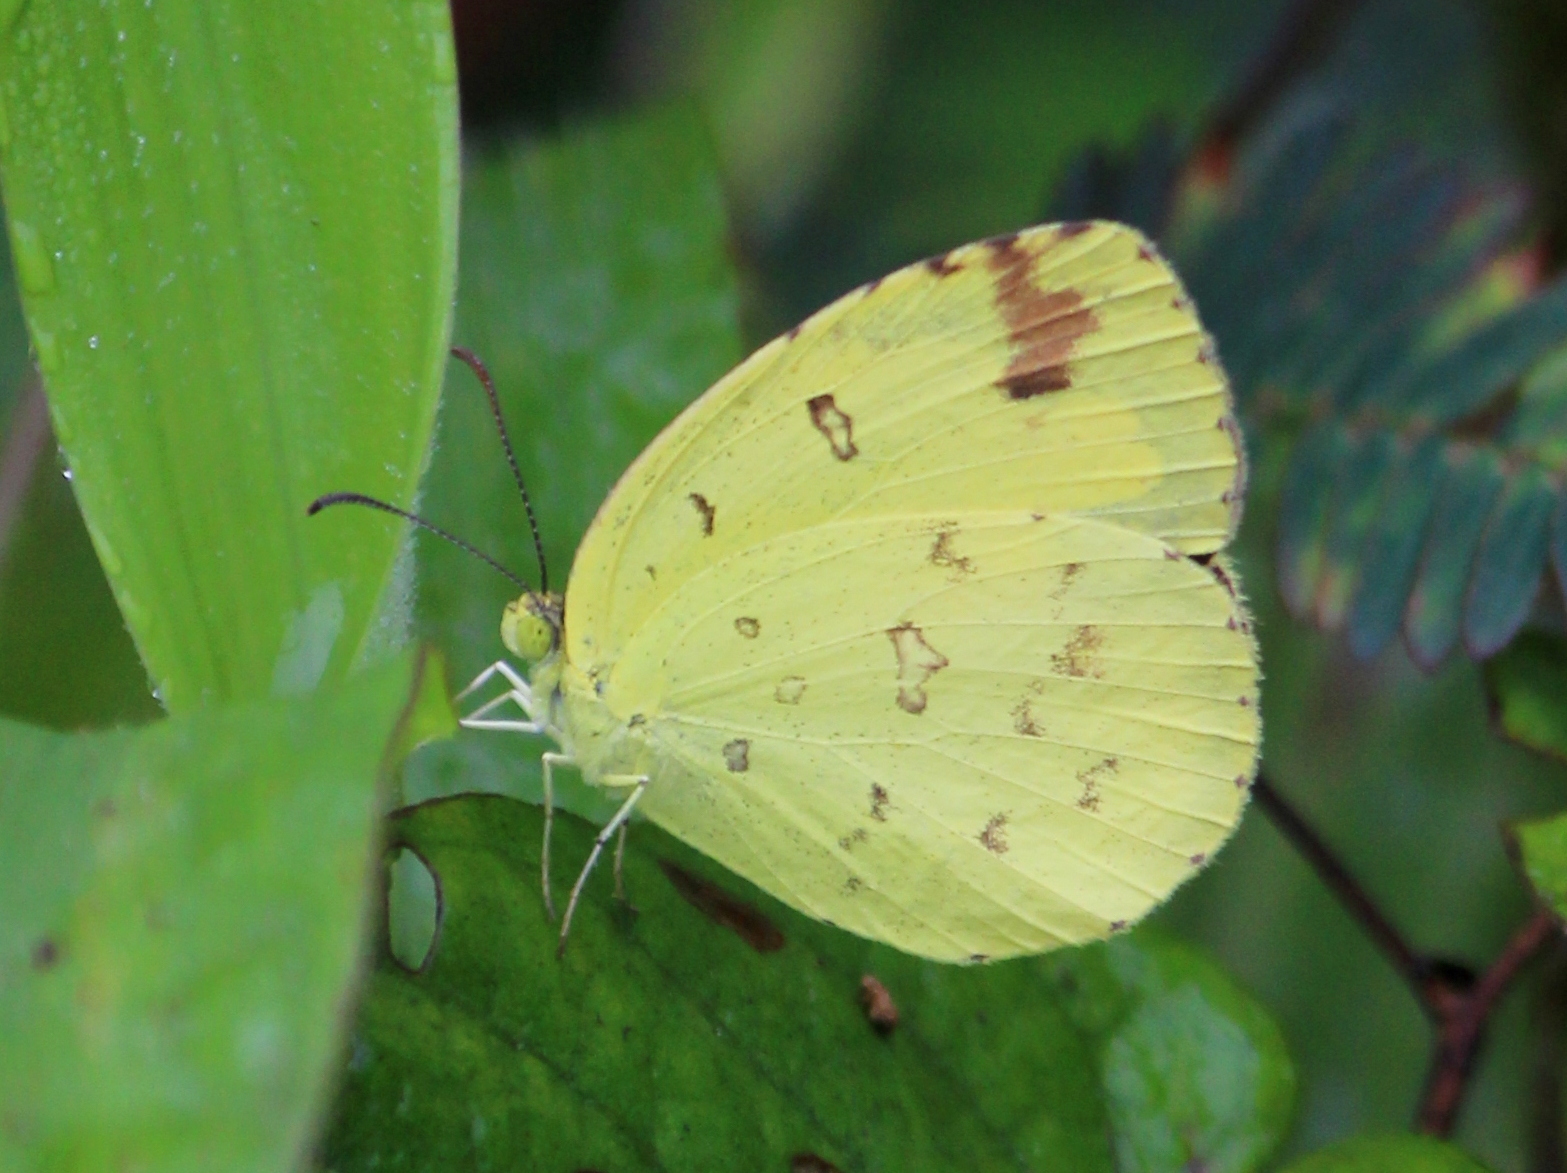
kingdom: Animalia
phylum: Arthropoda
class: Insecta
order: Lepidoptera
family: Pieridae
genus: Eurema
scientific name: Eurema hecabe
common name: Pale grass yellow
